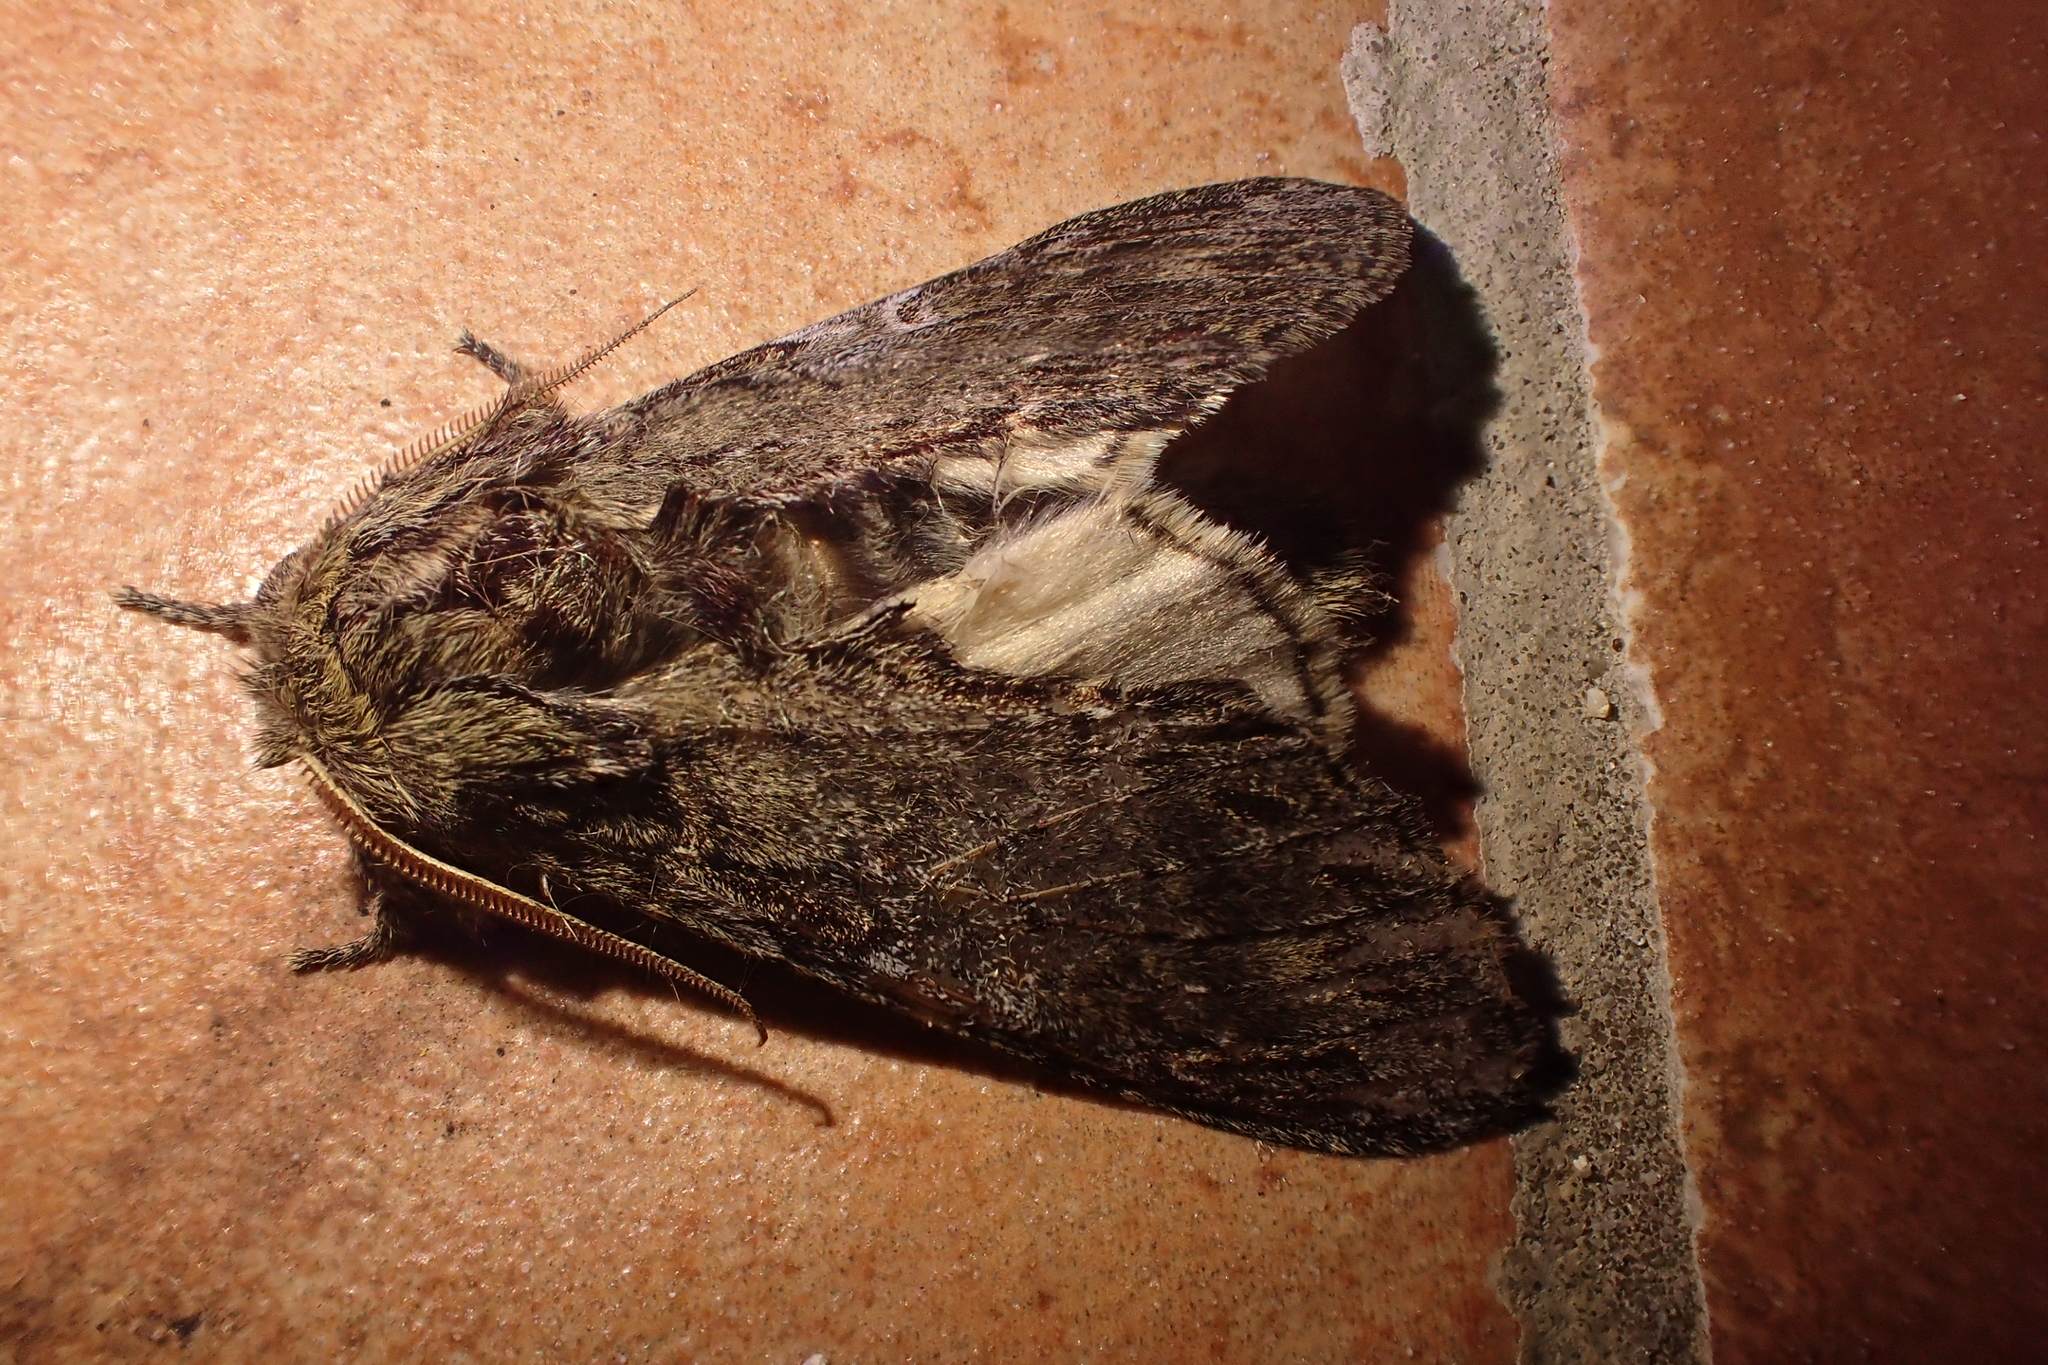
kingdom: Animalia
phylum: Arthropoda
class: Insecta
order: Lepidoptera
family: Notodontidae
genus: Peridea
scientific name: Peridea anceps
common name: Great prominent
